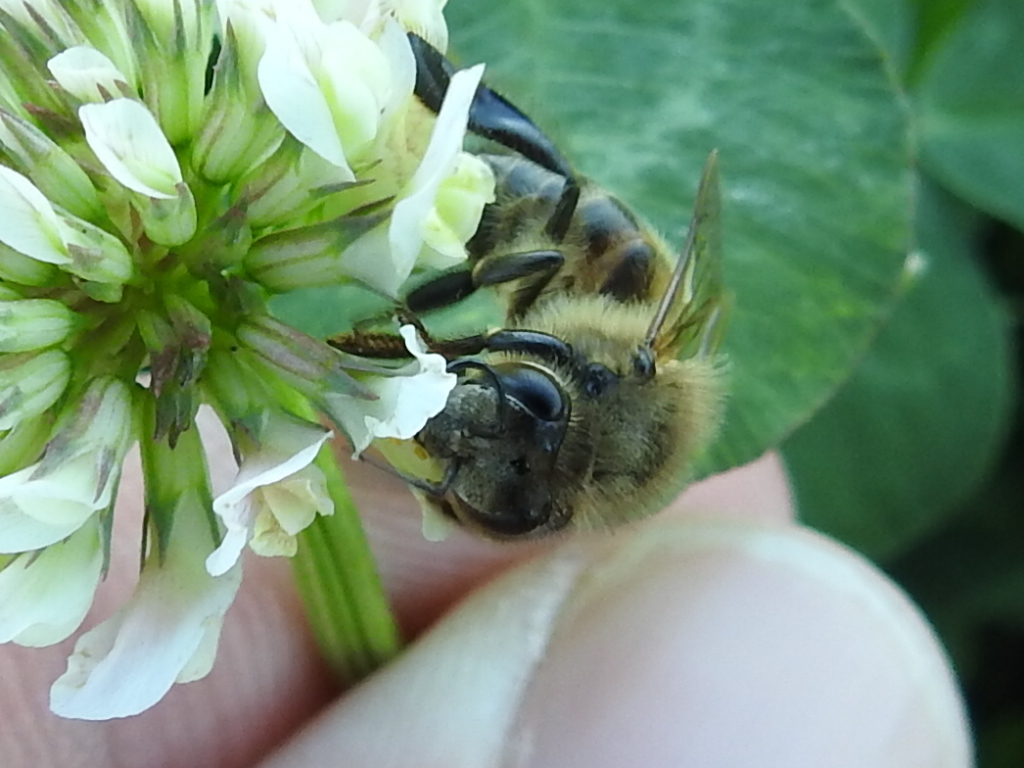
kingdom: Animalia
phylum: Arthropoda
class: Insecta
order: Hymenoptera
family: Apidae
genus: Apis
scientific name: Apis mellifera
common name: Honey bee
